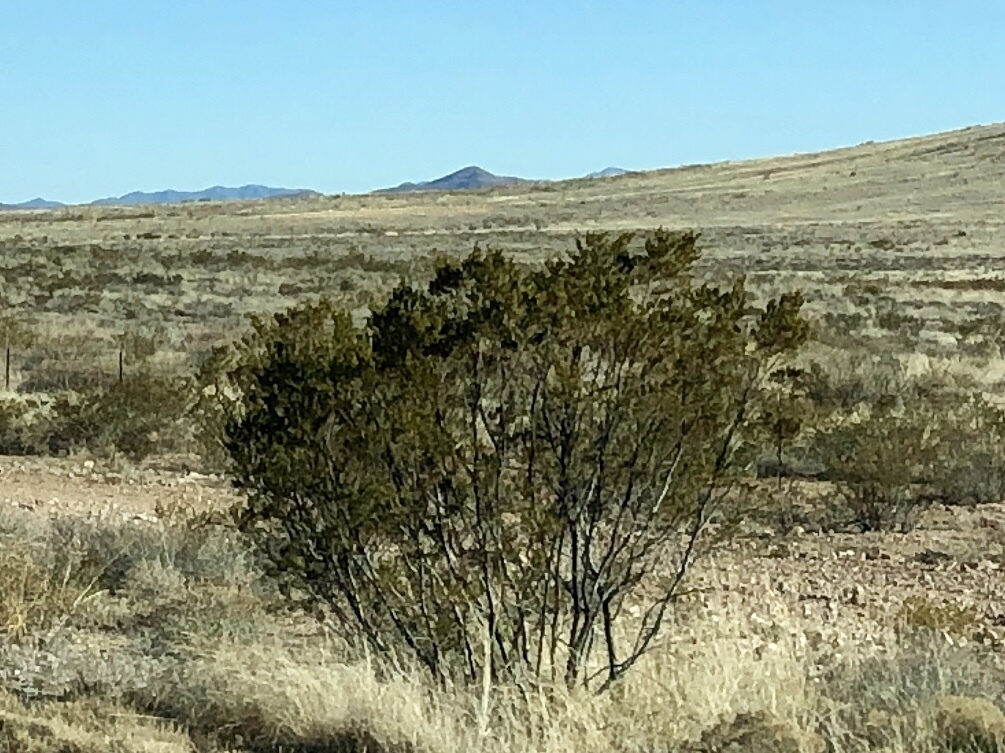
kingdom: Plantae
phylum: Tracheophyta
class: Magnoliopsida
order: Zygophyllales
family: Zygophyllaceae
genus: Larrea
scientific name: Larrea tridentata
